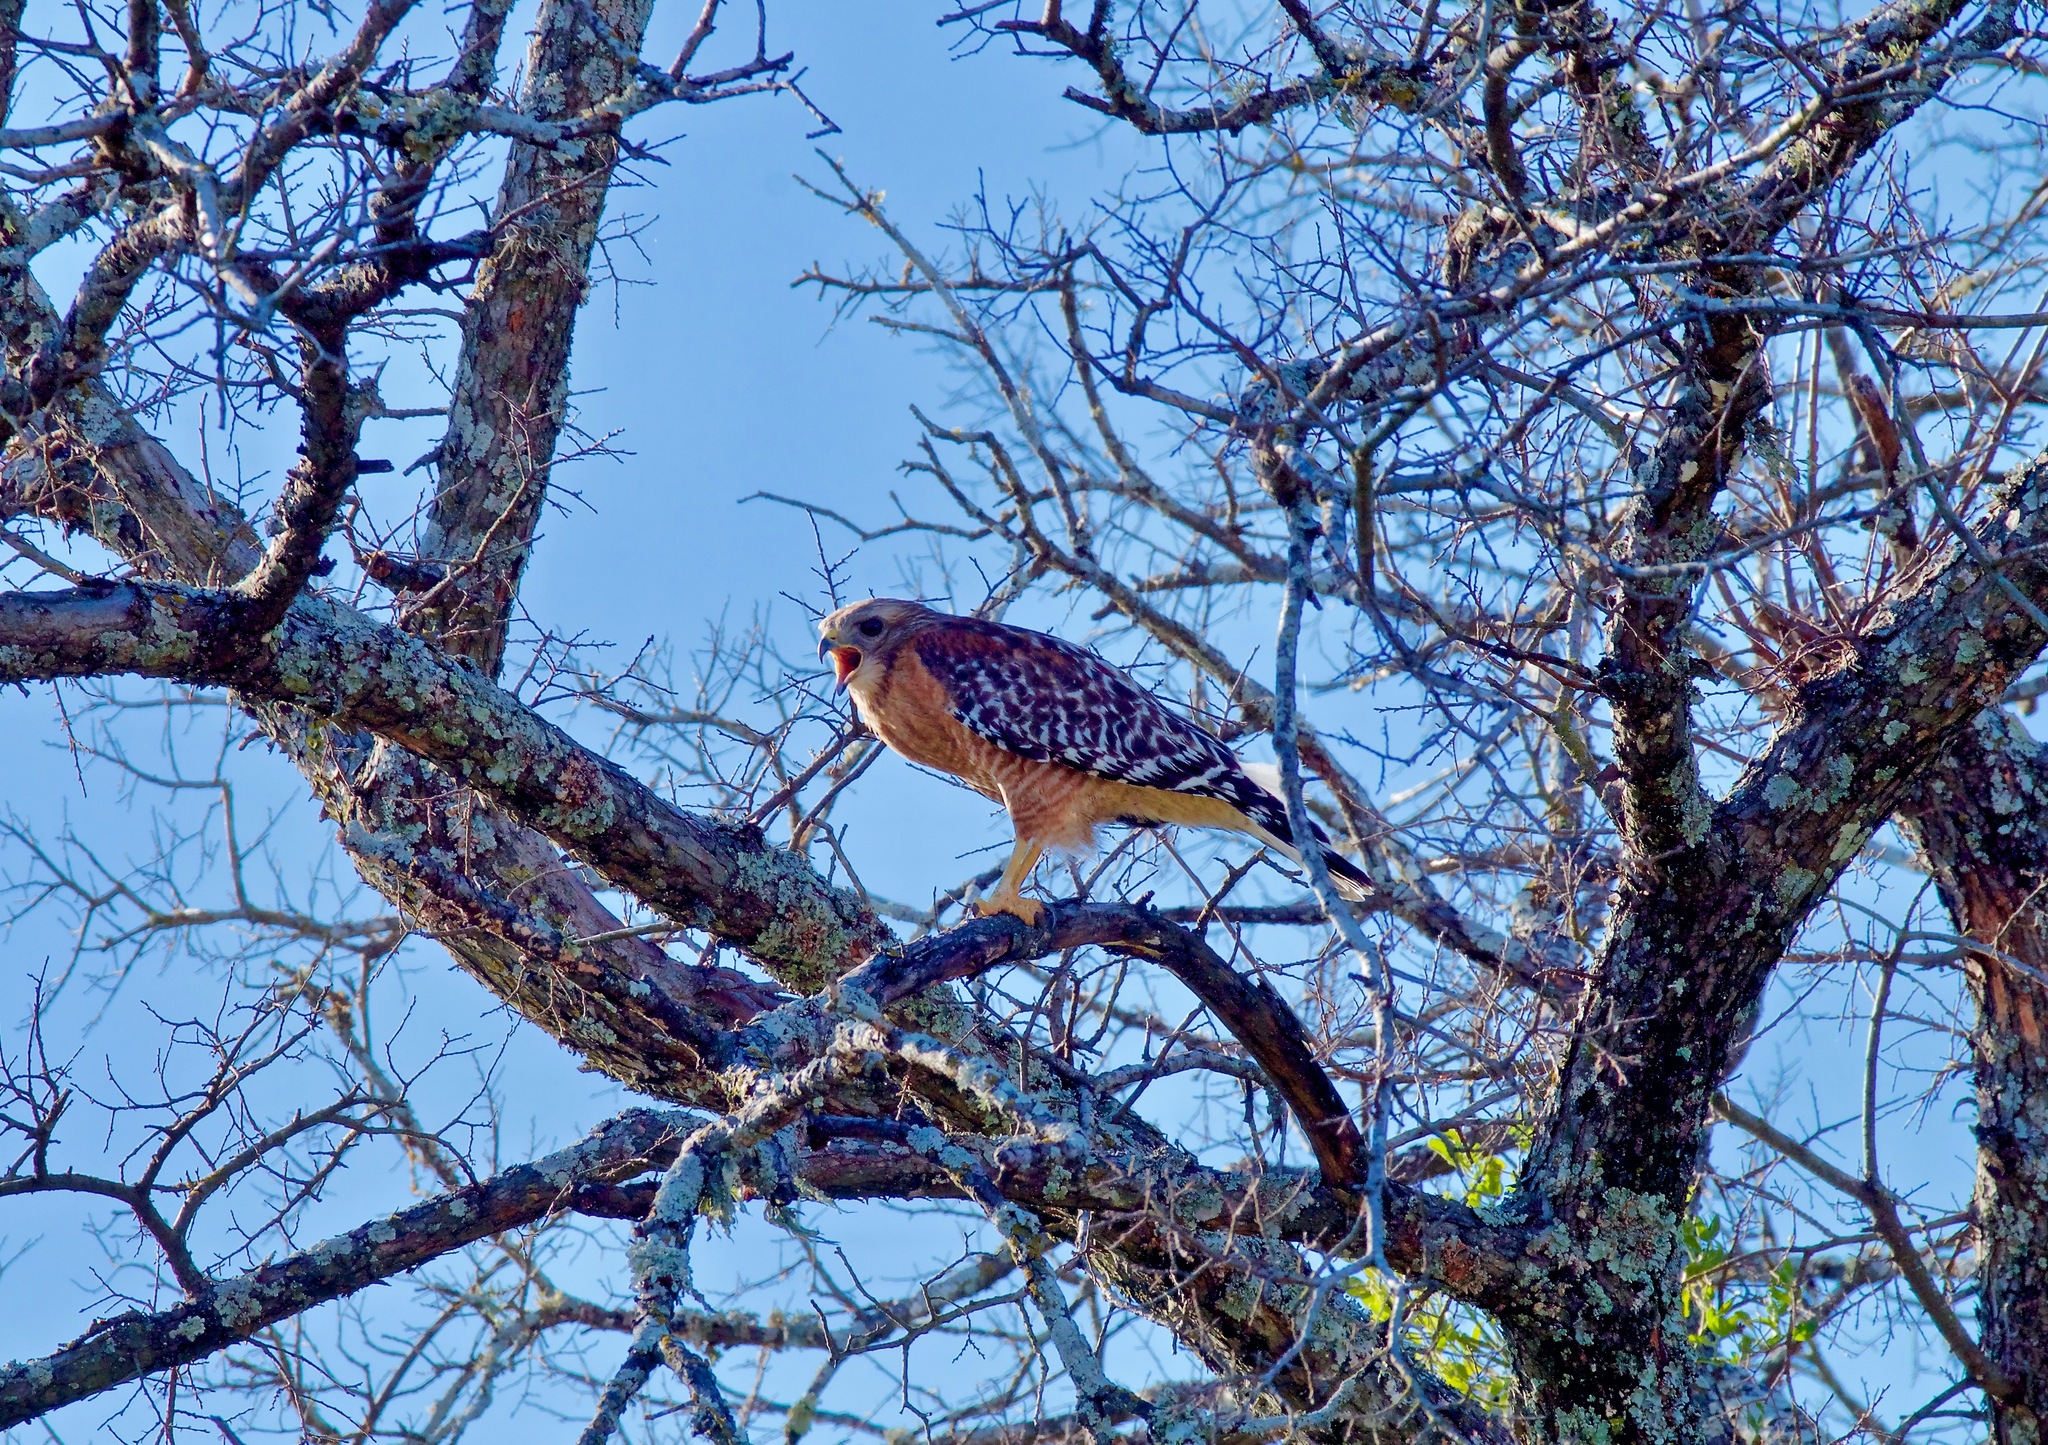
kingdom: Animalia
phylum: Chordata
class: Aves
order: Accipitriformes
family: Accipitridae
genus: Buteo
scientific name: Buteo lineatus
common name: Red-shouldered hawk
